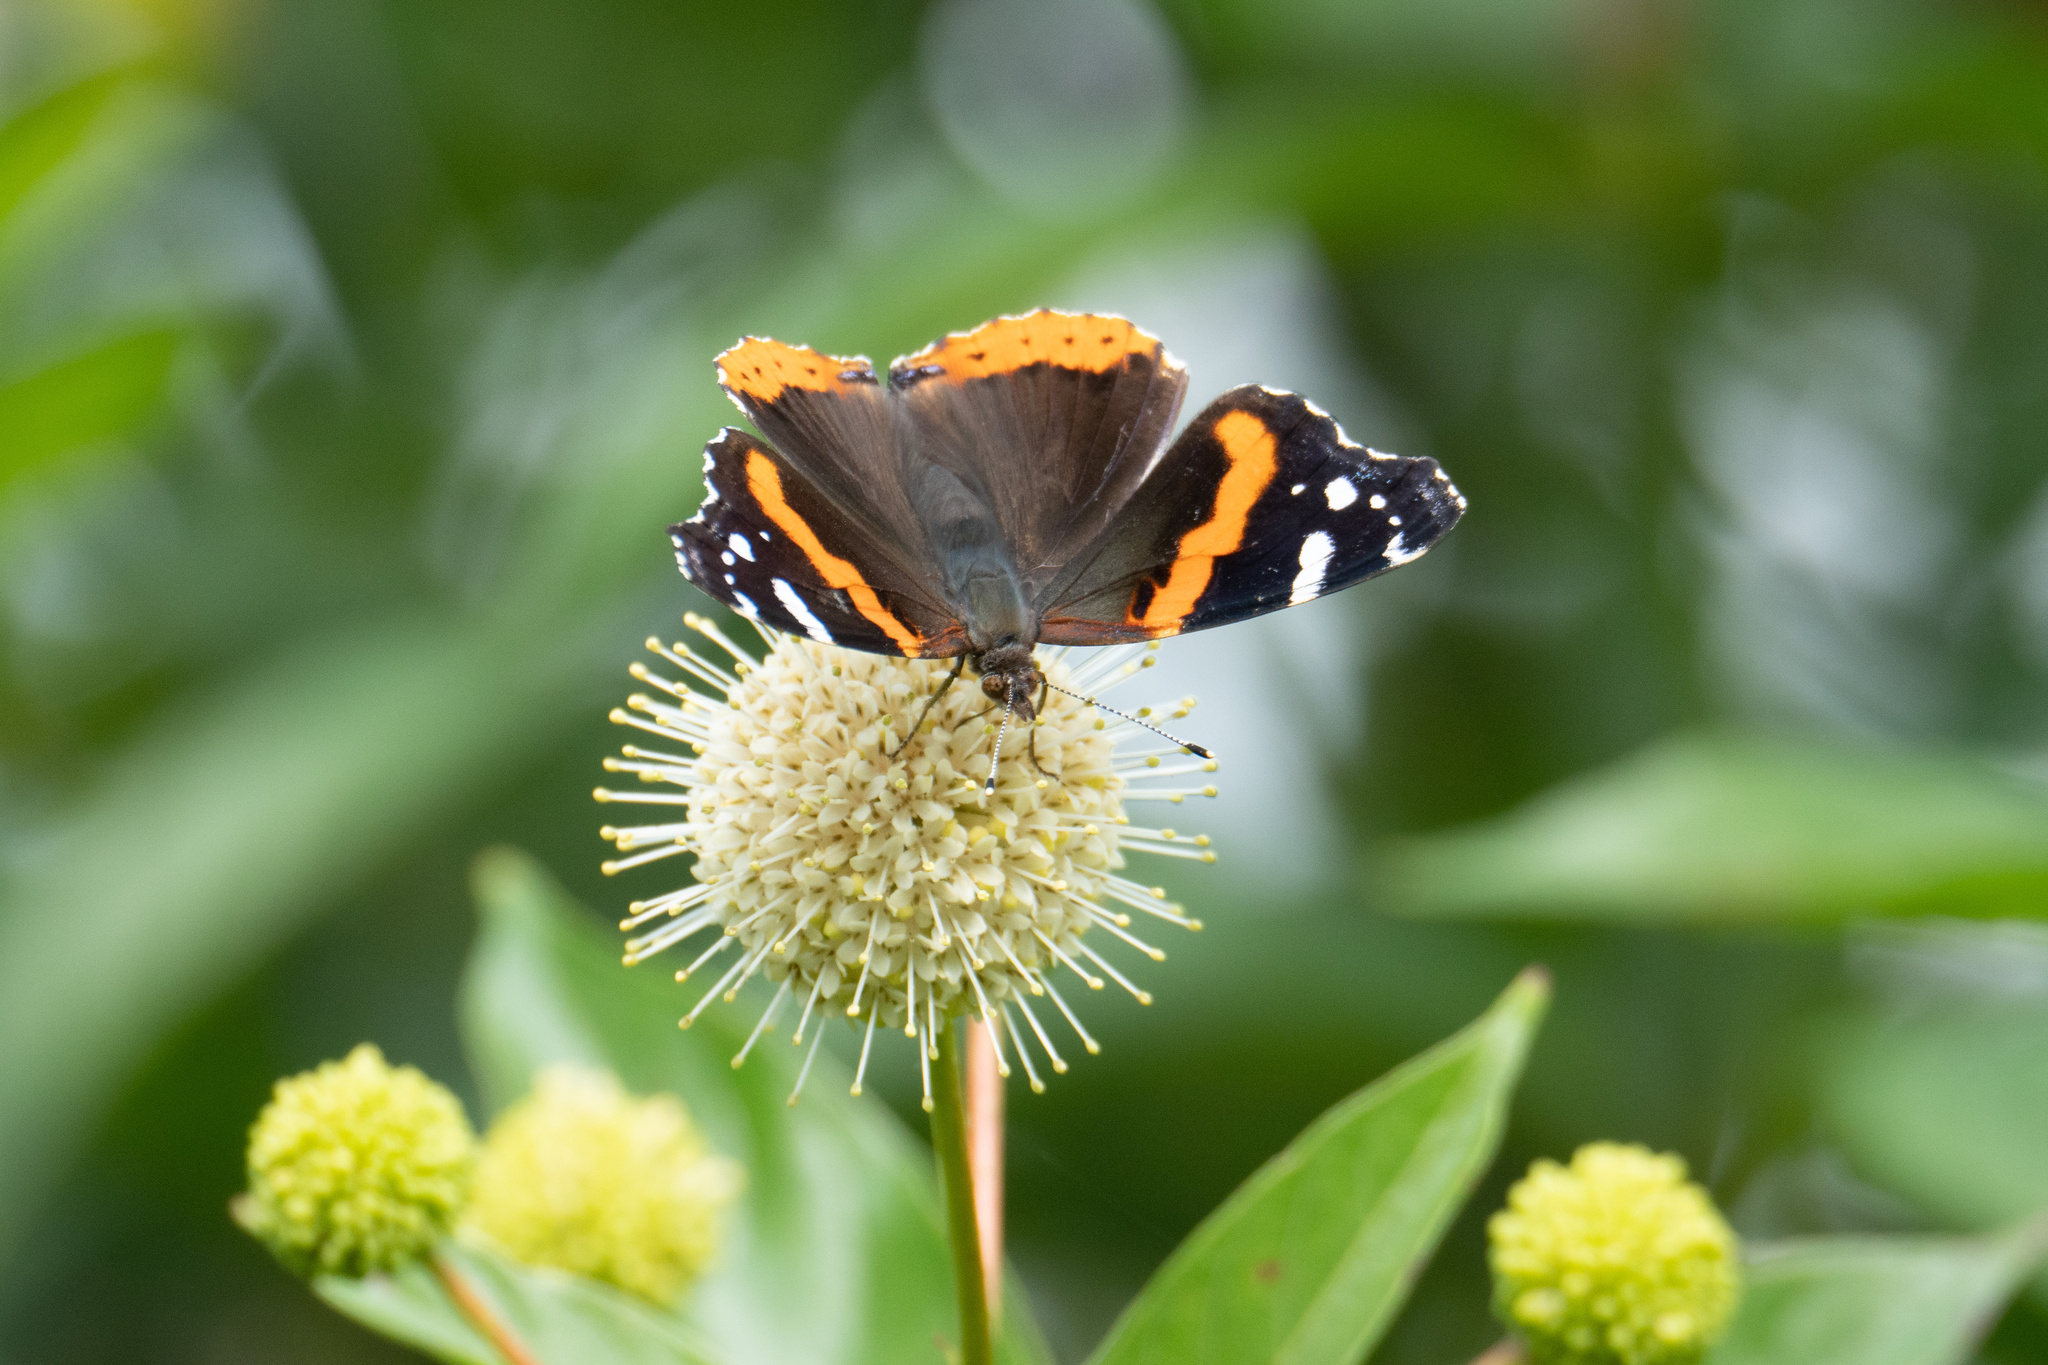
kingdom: Animalia
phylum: Arthropoda
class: Insecta
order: Lepidoptera
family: Nymphalidae
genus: Vanessa
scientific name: Vanessa atalanta
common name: Red admiral
